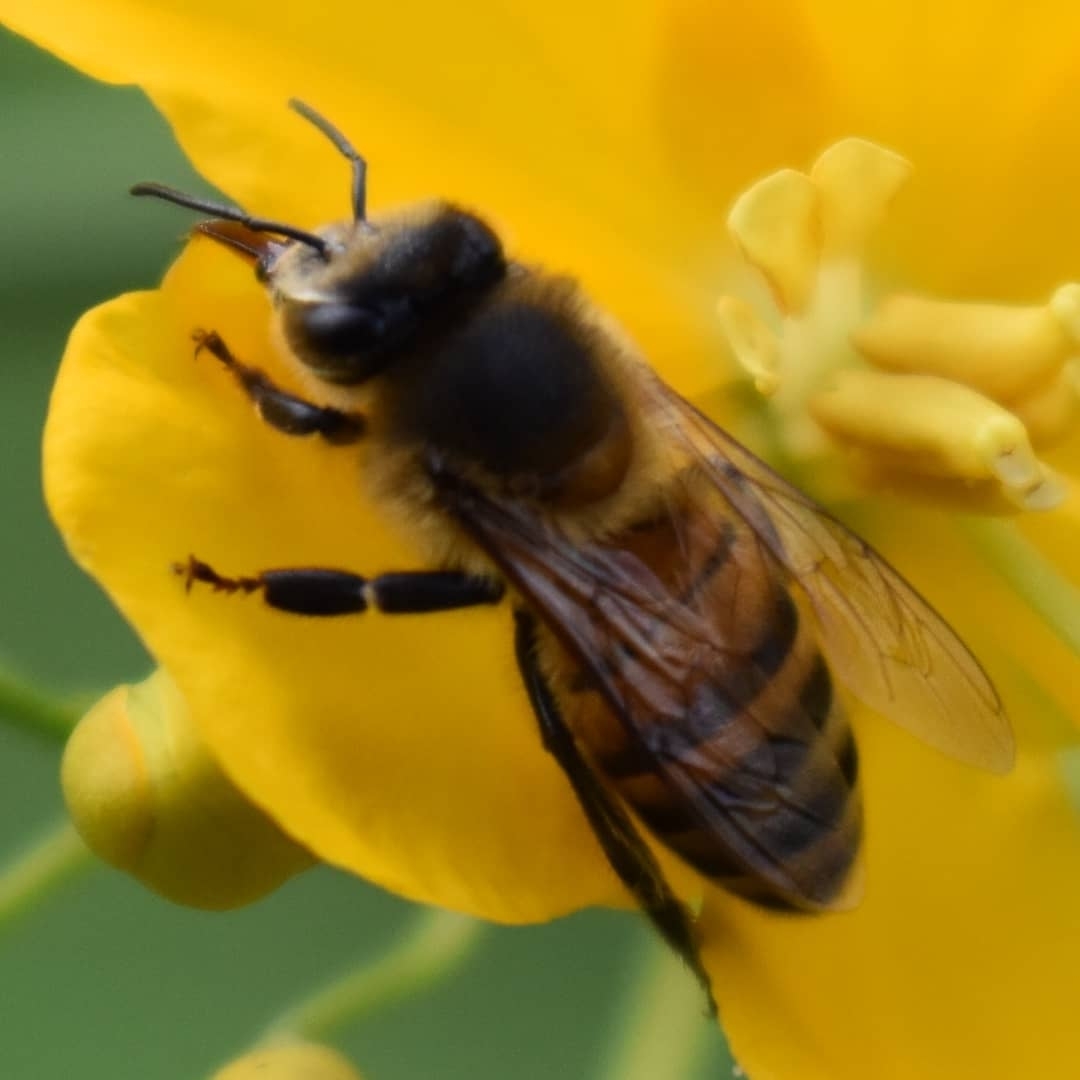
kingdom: Animalia
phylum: Arthropoda
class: Insecta
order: Hymenoptera
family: Apidae
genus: Apis
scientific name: Apis mellifera
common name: Honey bee
